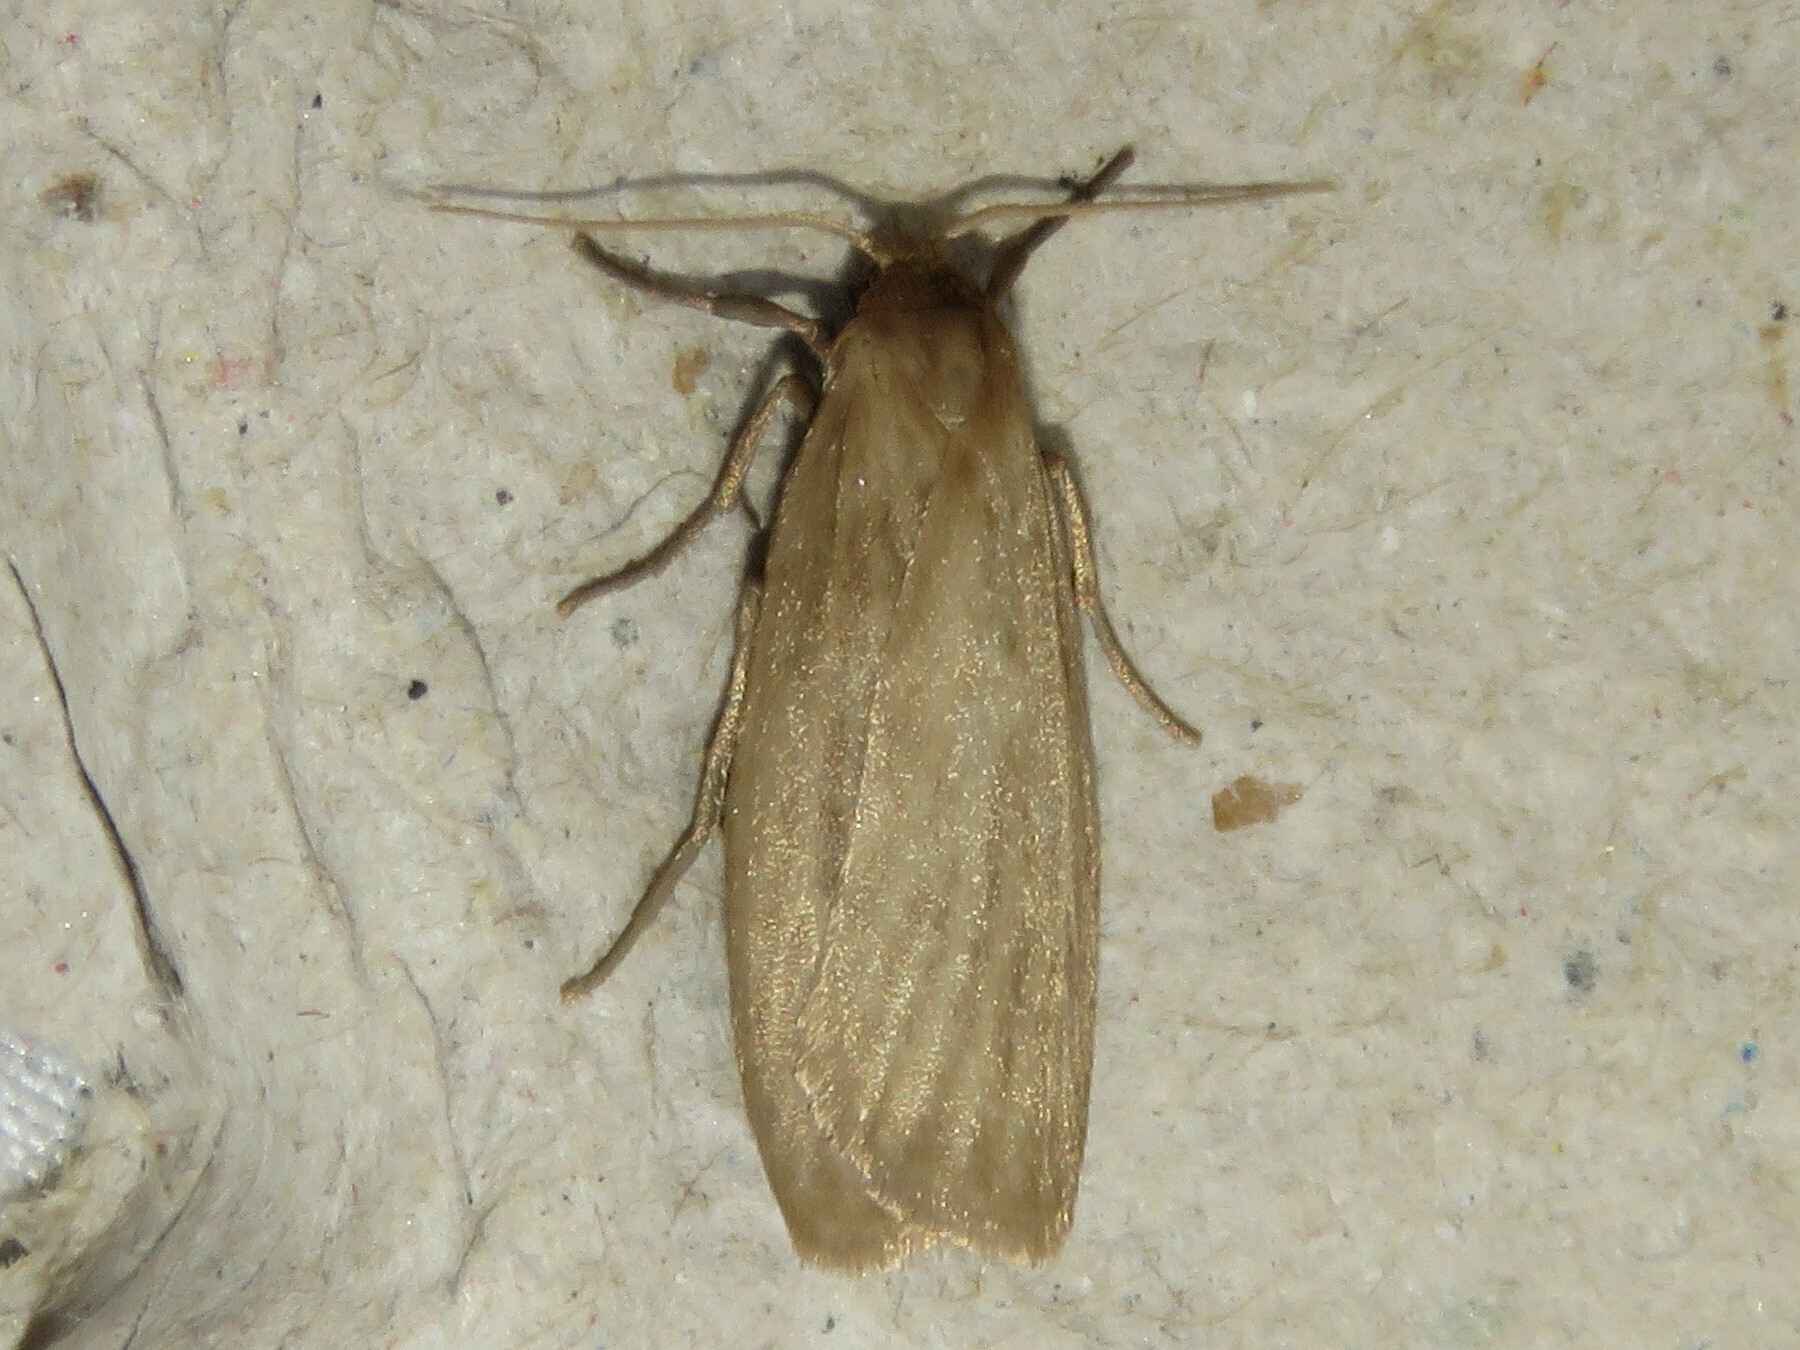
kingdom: Animalia
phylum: Arthropoda
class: Insecta
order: Lepidoptera
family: Erebidae
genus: Crambidia
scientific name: Crambidia pallida
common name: Pale lichen moth
